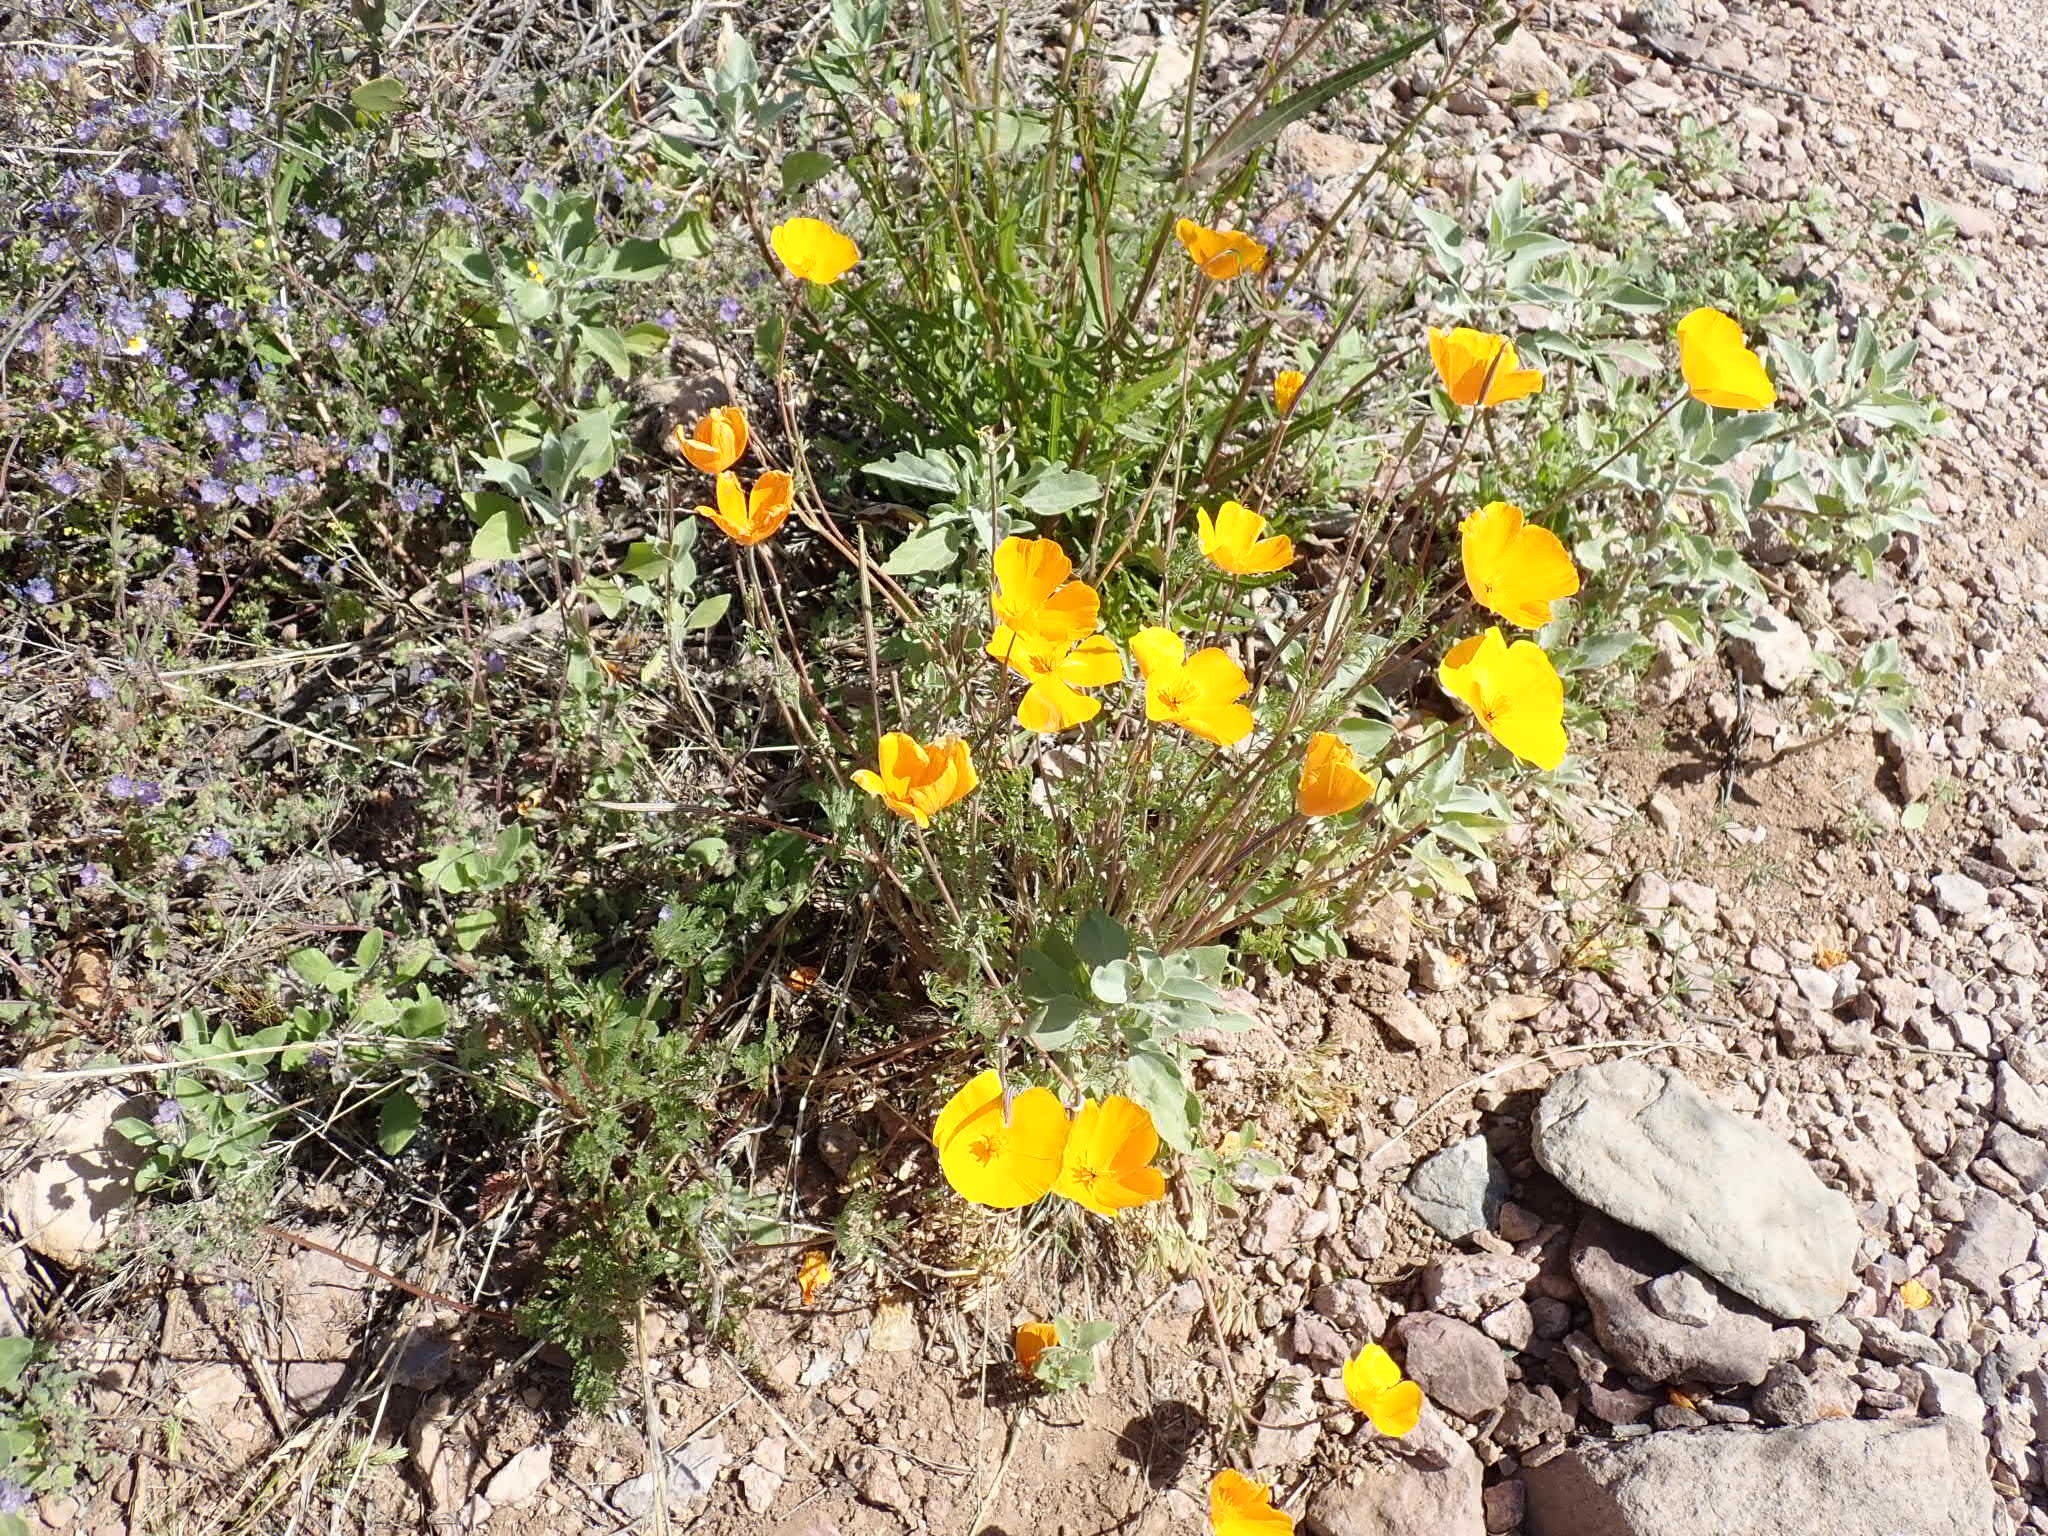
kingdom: Plantae
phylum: Tracheophyta
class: Magnoliopsida
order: Ranunculales
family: Papaveraceae
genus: Eschscholzia
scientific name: Eschscholzia californica
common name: California poppy
